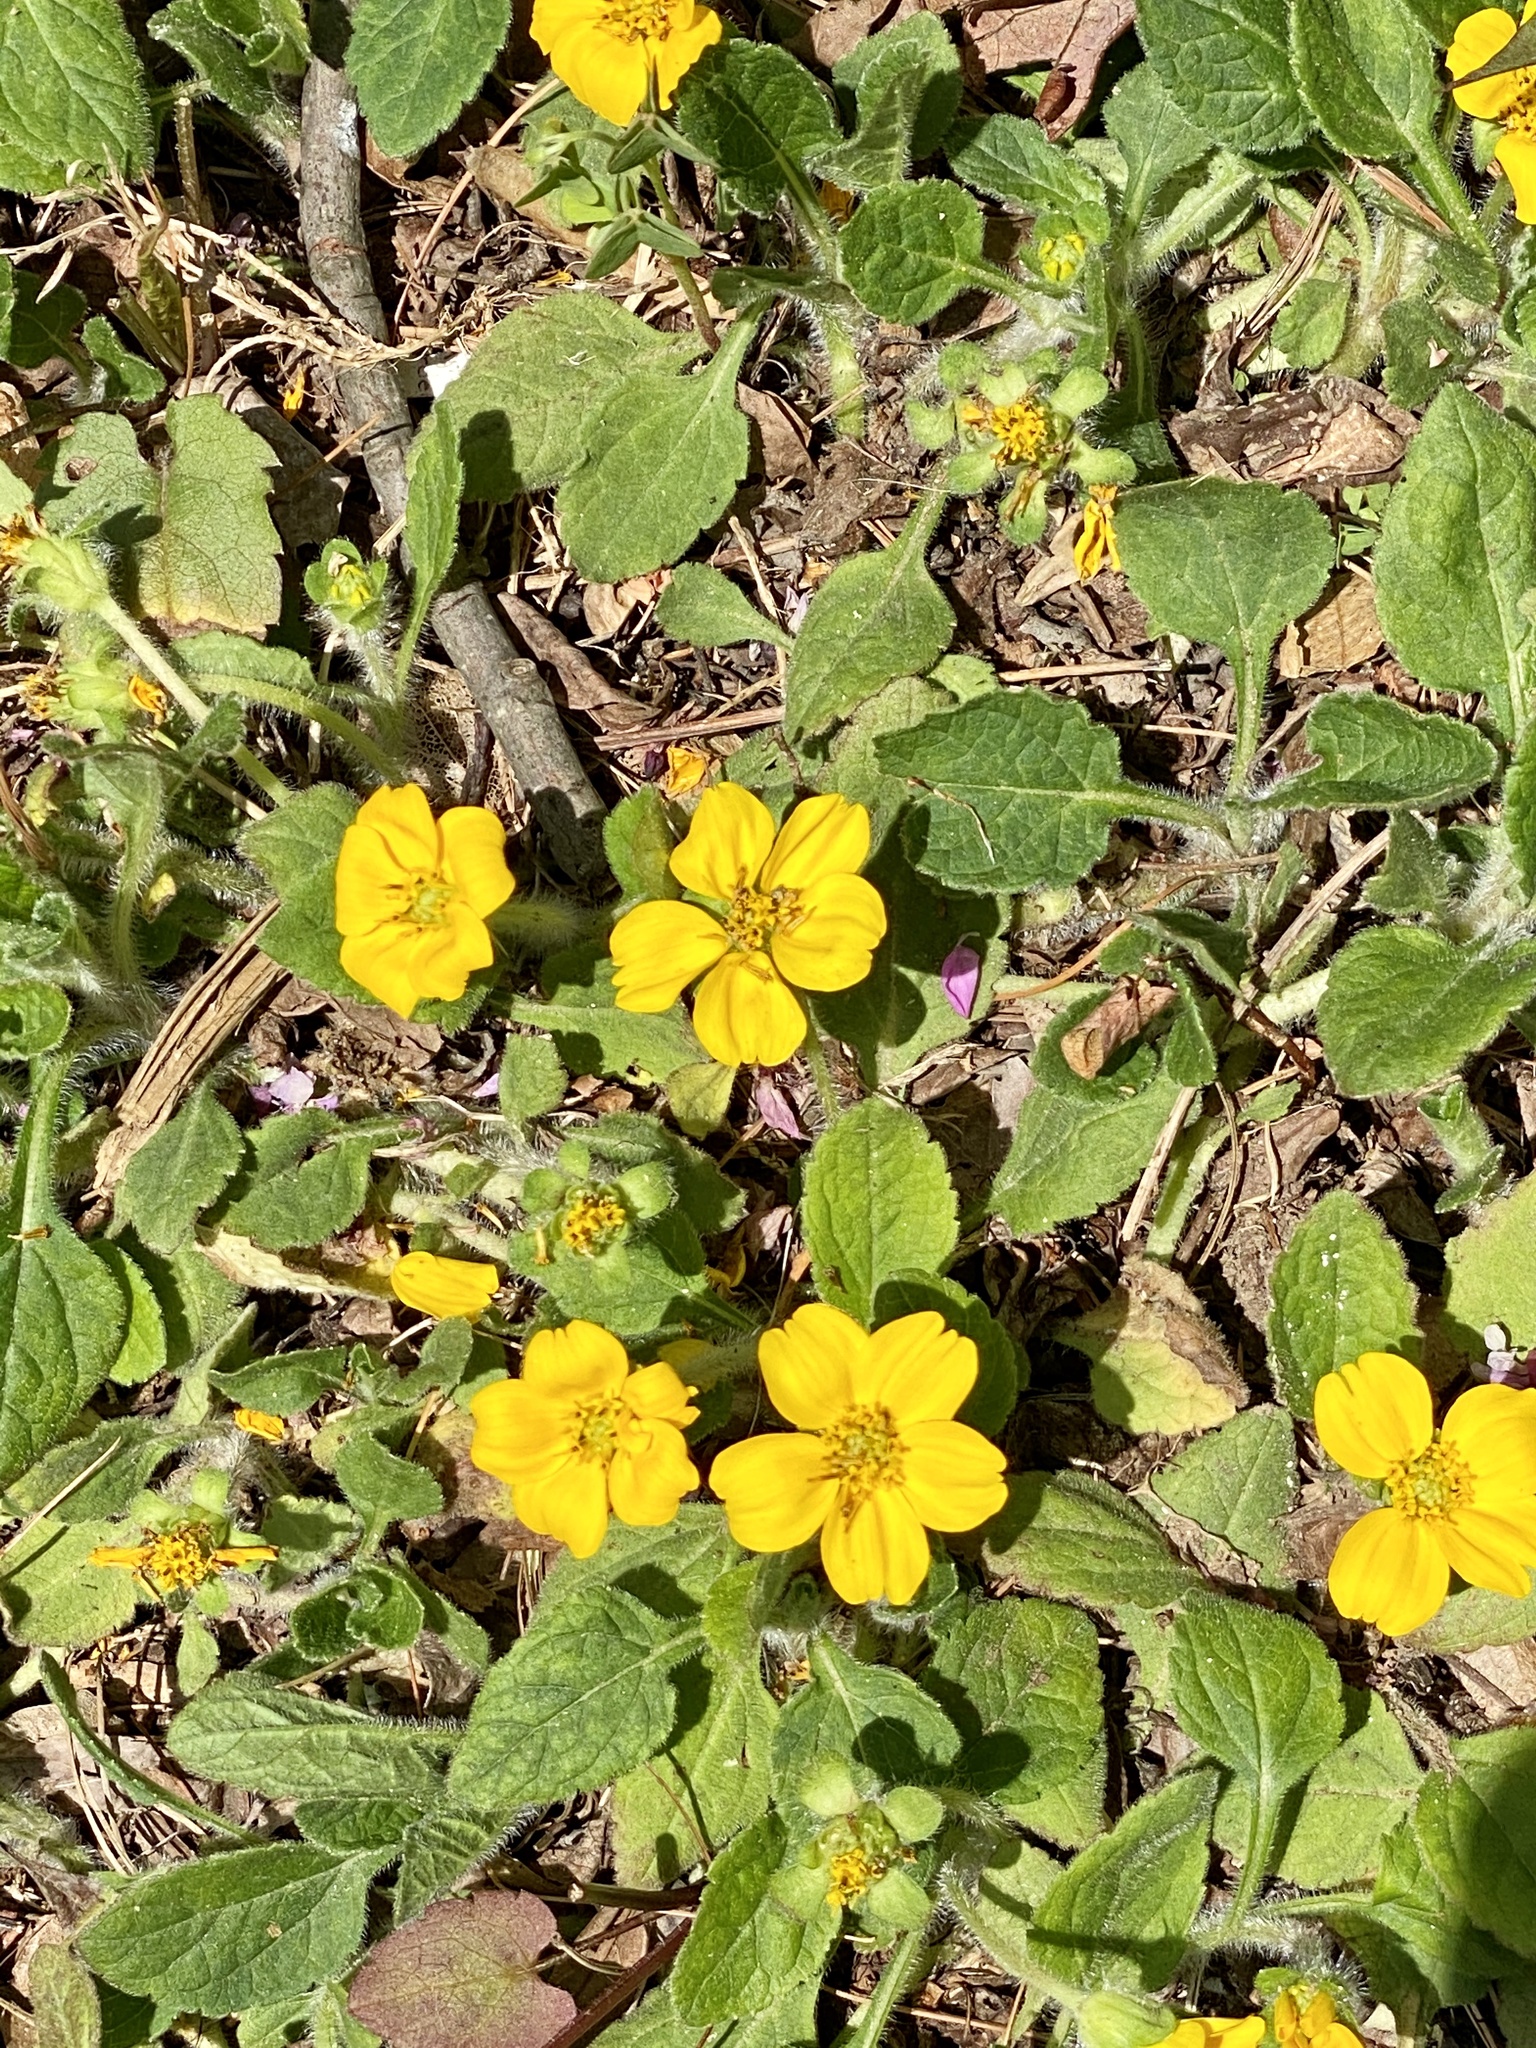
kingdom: Plantae
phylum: Tracheophyta
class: Magnoliopsida
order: Asterales
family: Asteraceae
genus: Chrysogonum
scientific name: Chrysogonum virginianum
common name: Golden-knee
